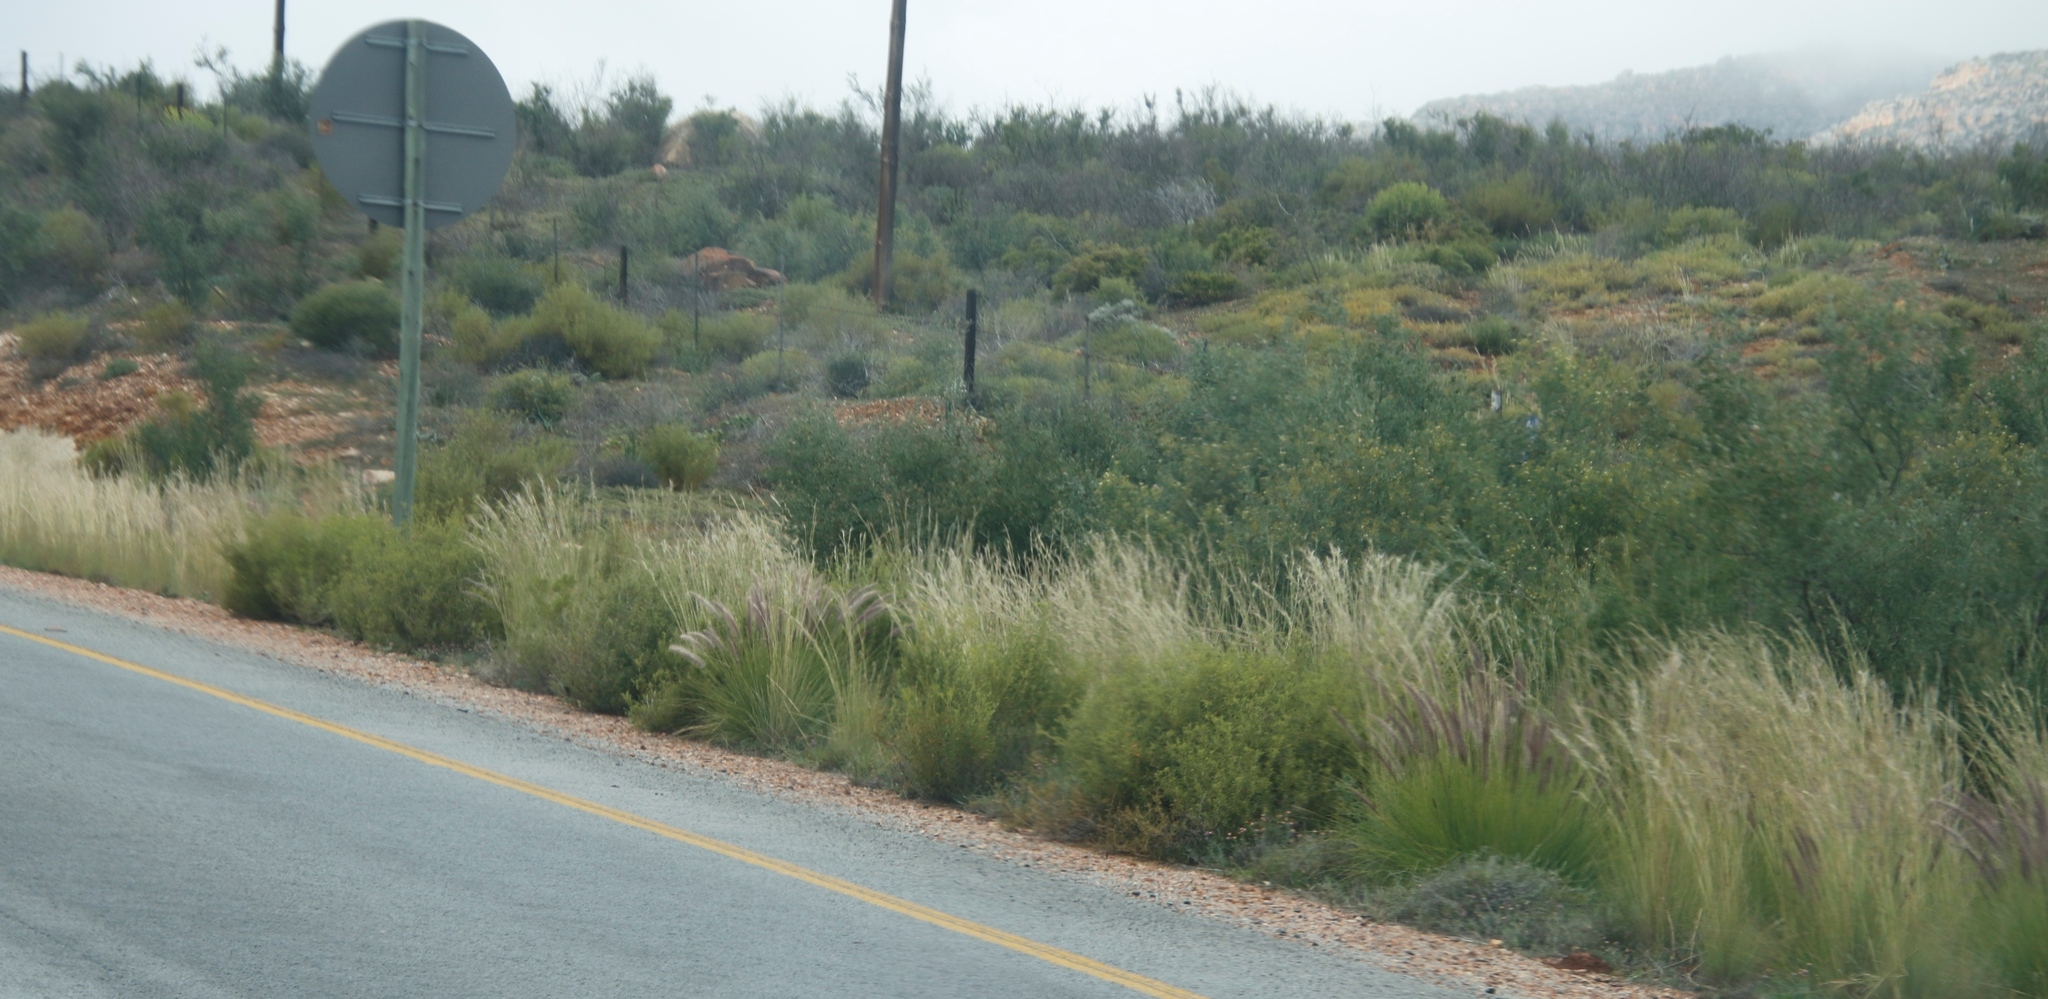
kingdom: Plantae
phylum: Tracheophyta
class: Liliopsida
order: Poales
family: Poaceae
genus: Cenchrus
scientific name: Cenchrus setaceus
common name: Crimson fountaingrass
